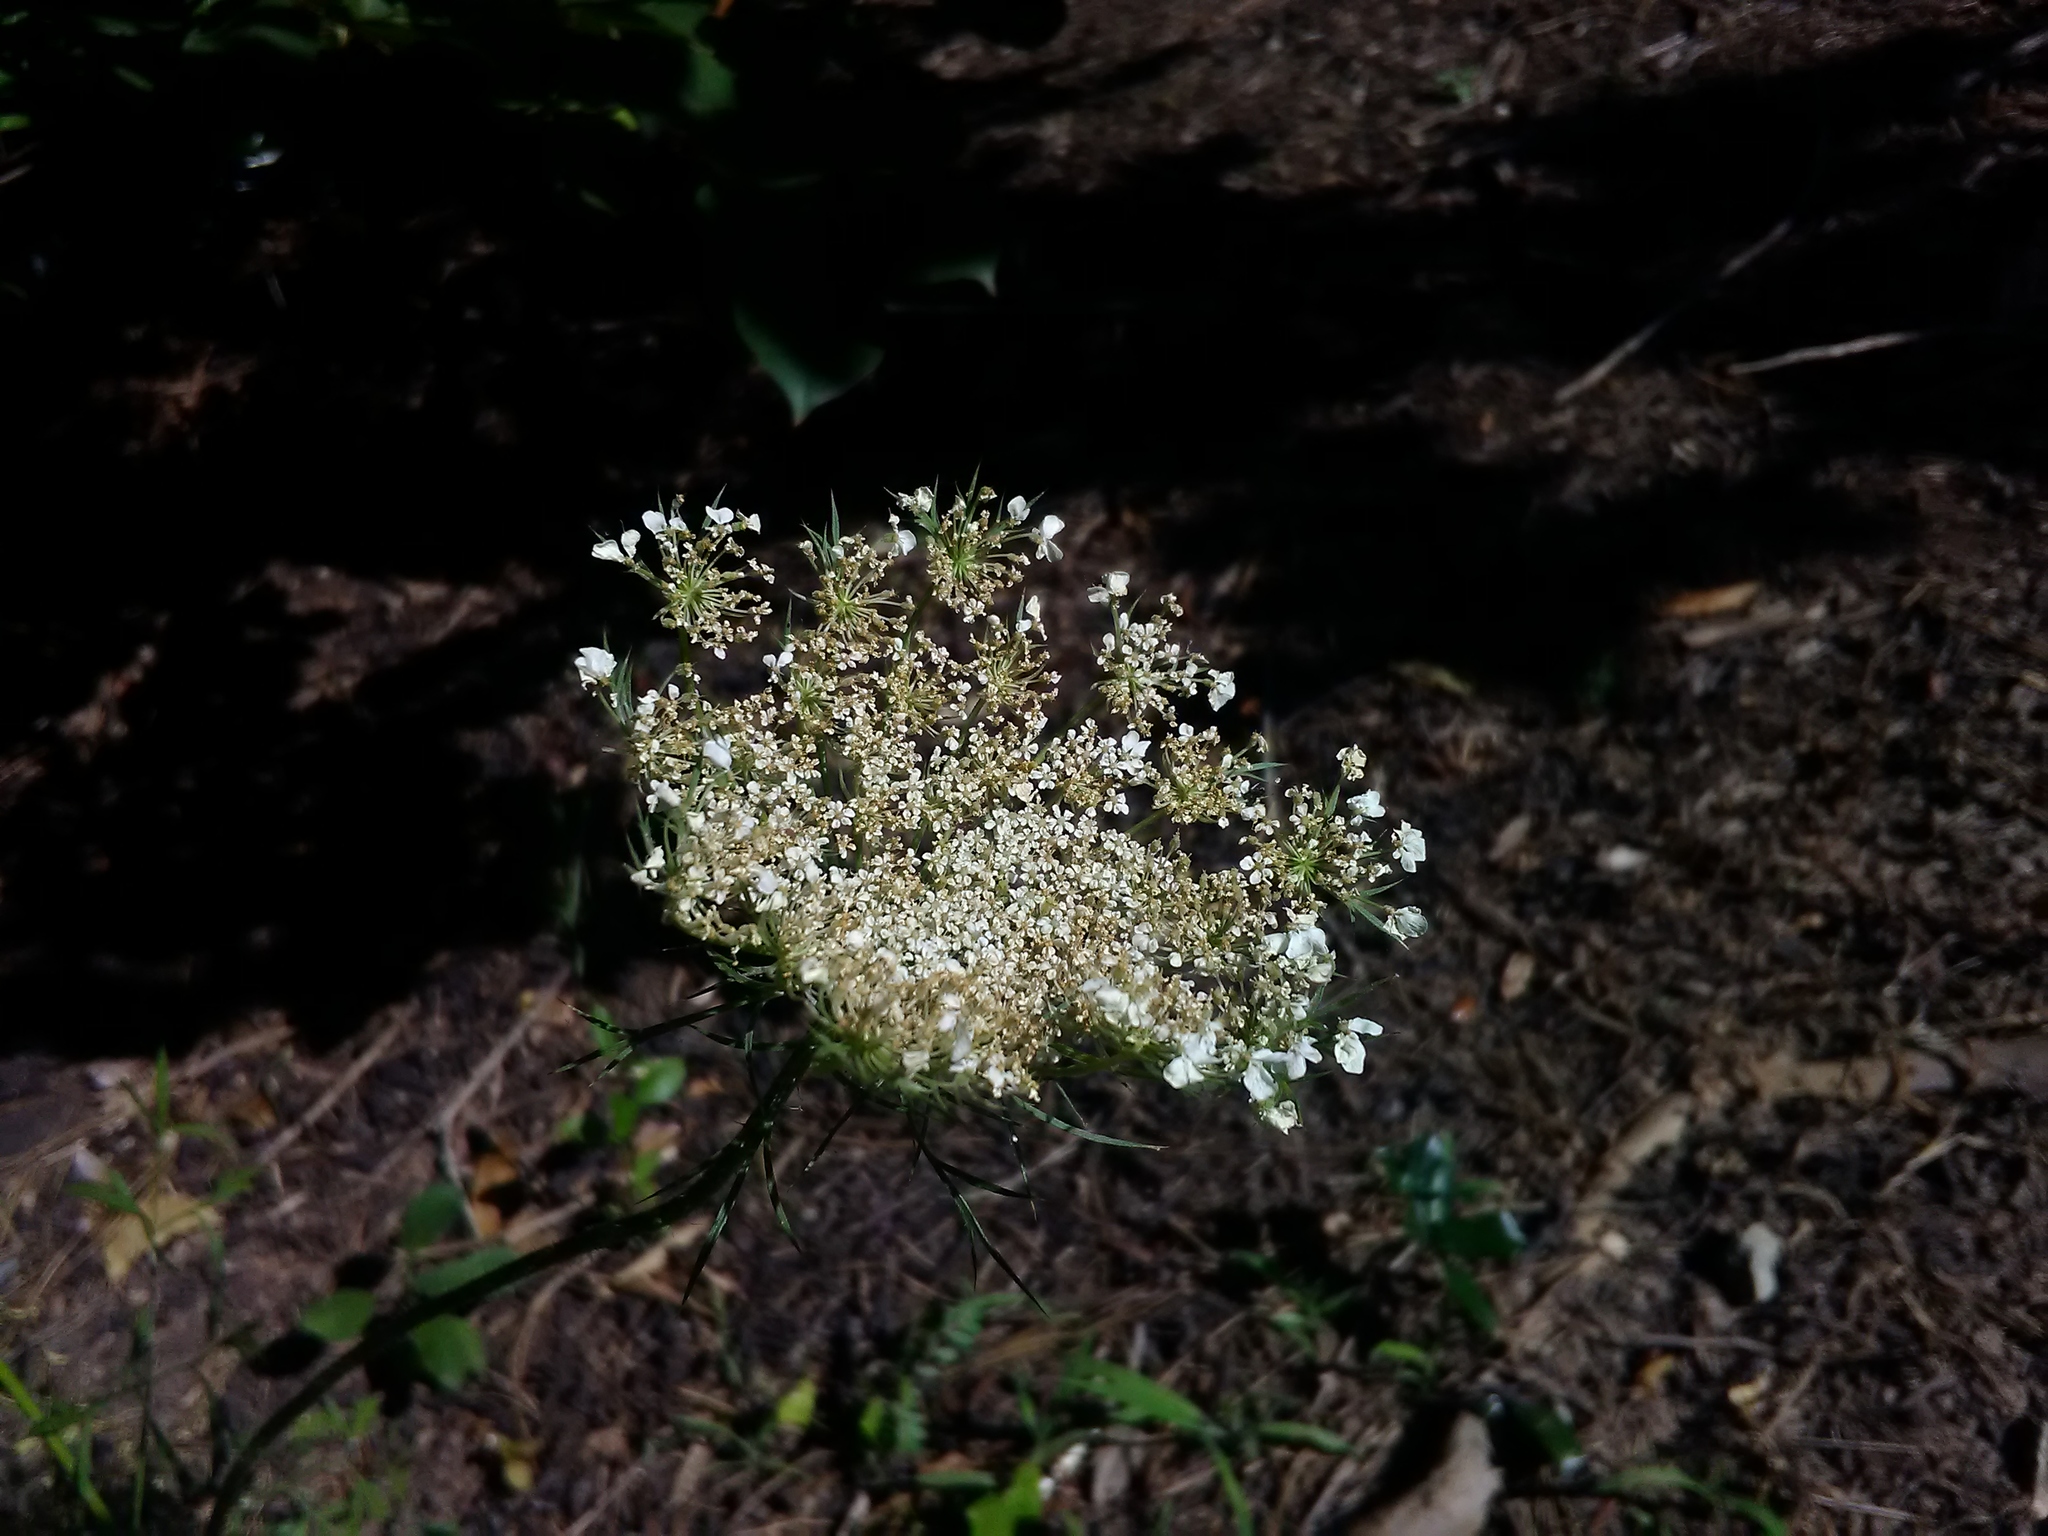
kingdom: Plantae
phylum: Tracheophyta
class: Magnoliopsida
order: Apiales
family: Apiaceae
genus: Daucus
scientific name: Daucus carota
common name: Wild carrot
